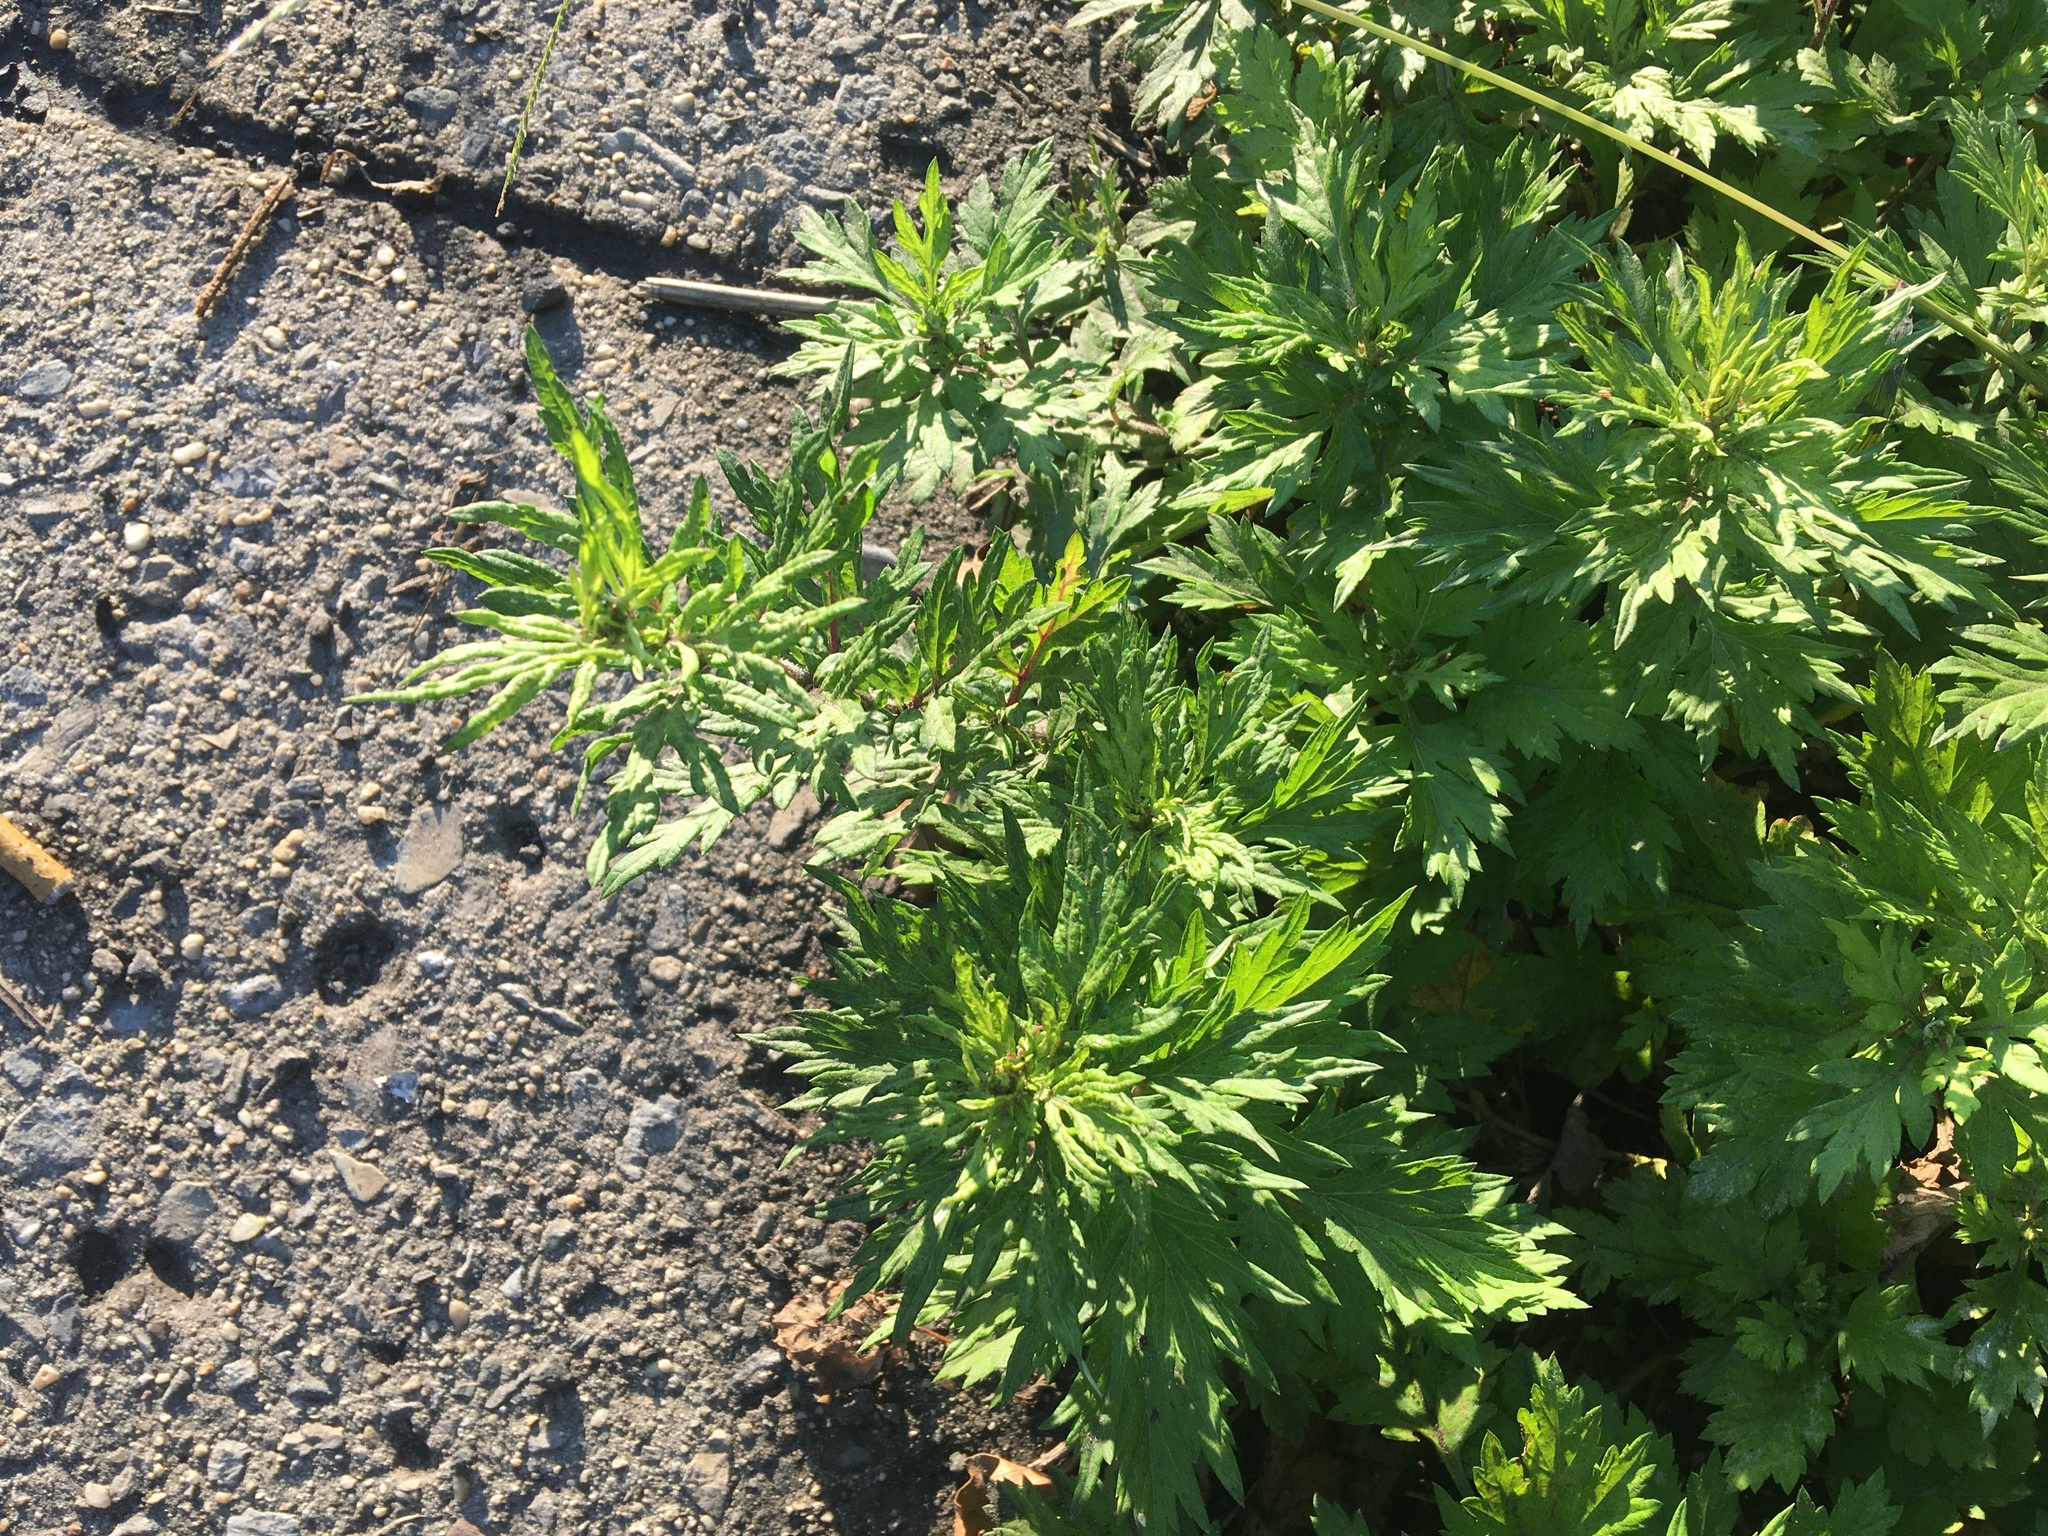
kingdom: Plantae
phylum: Tracheophyta
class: Magnoliopsida
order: Asterales
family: Asteraceae
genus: Artemisia
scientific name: Artemisia vulgaris
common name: Mugwort
